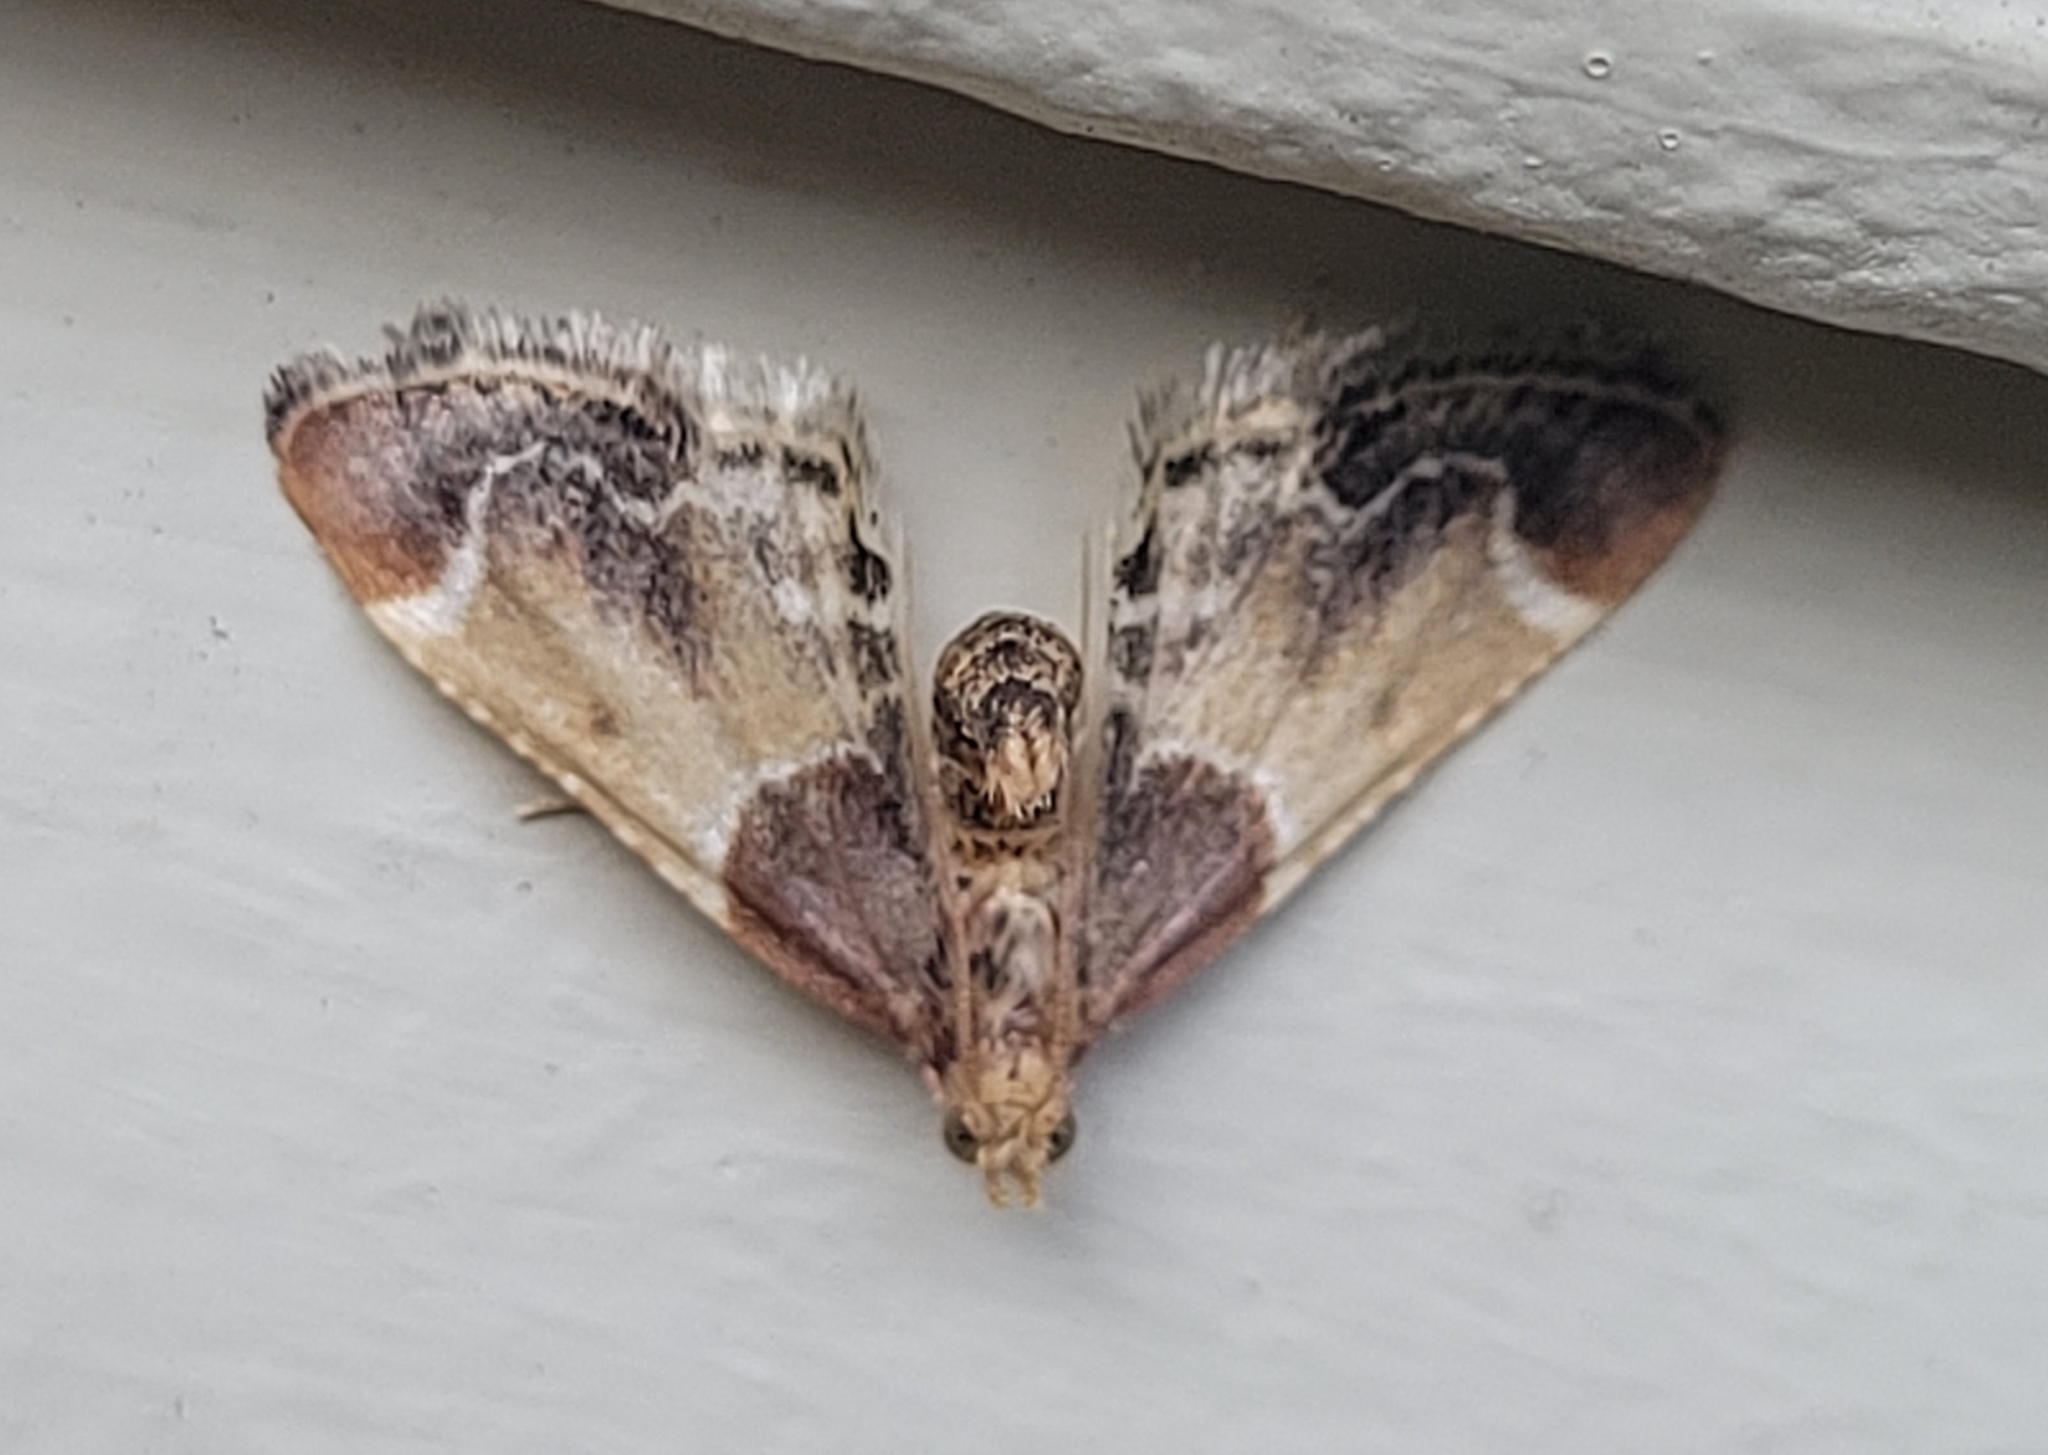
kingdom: Animalia
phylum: Arthropoda
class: Insecta
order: Lepidoptera
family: Pyralidae
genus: Pyralis
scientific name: Pyralis farinalis
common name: Meal moth
